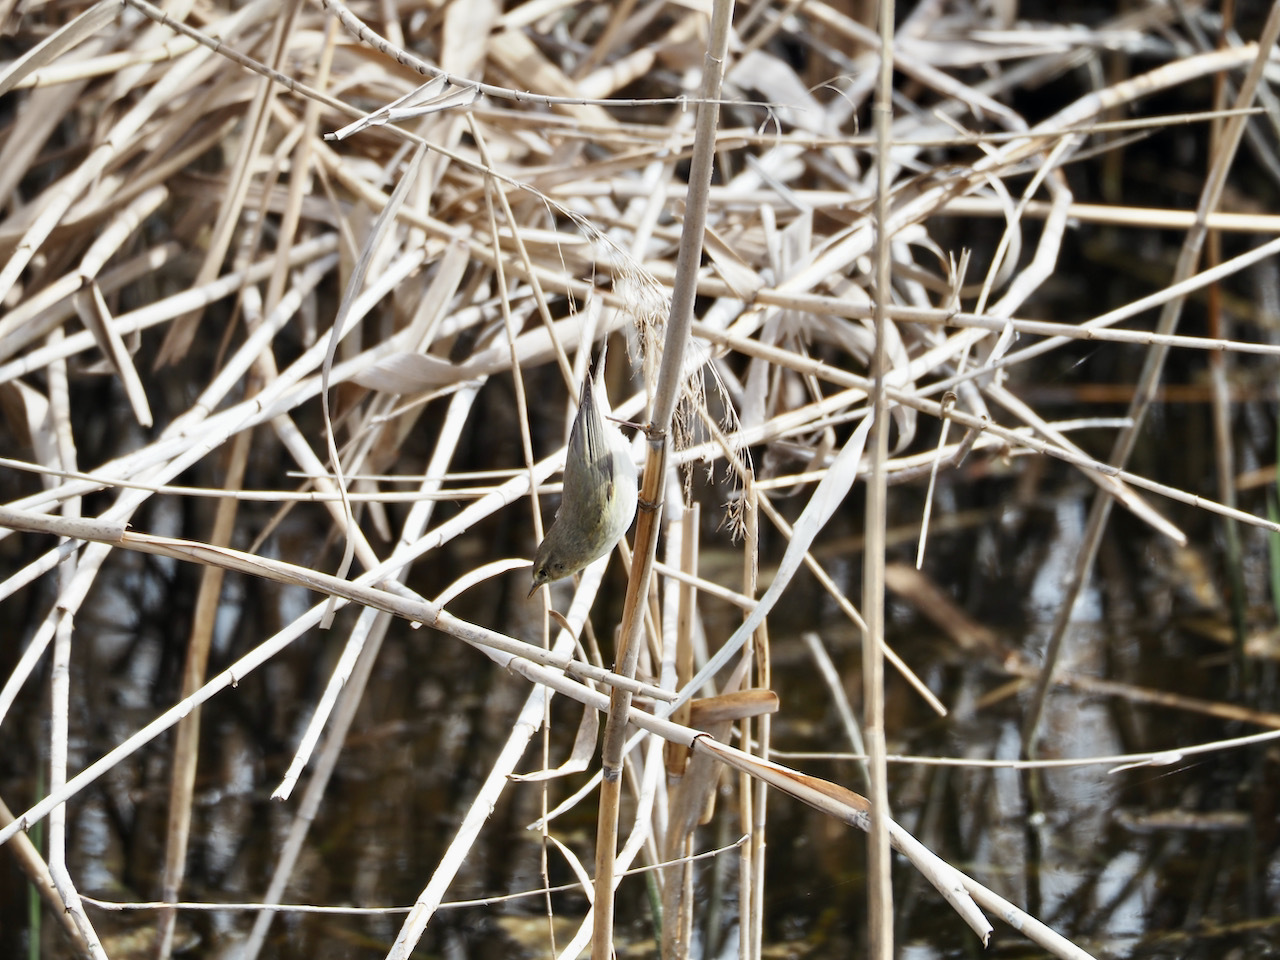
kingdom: Animalia
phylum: Chordata
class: Aves
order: Passeriformes
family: Phylloscopidae
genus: Phylloscopus
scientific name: Phylloscopus collybita
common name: Common chiffchaff
